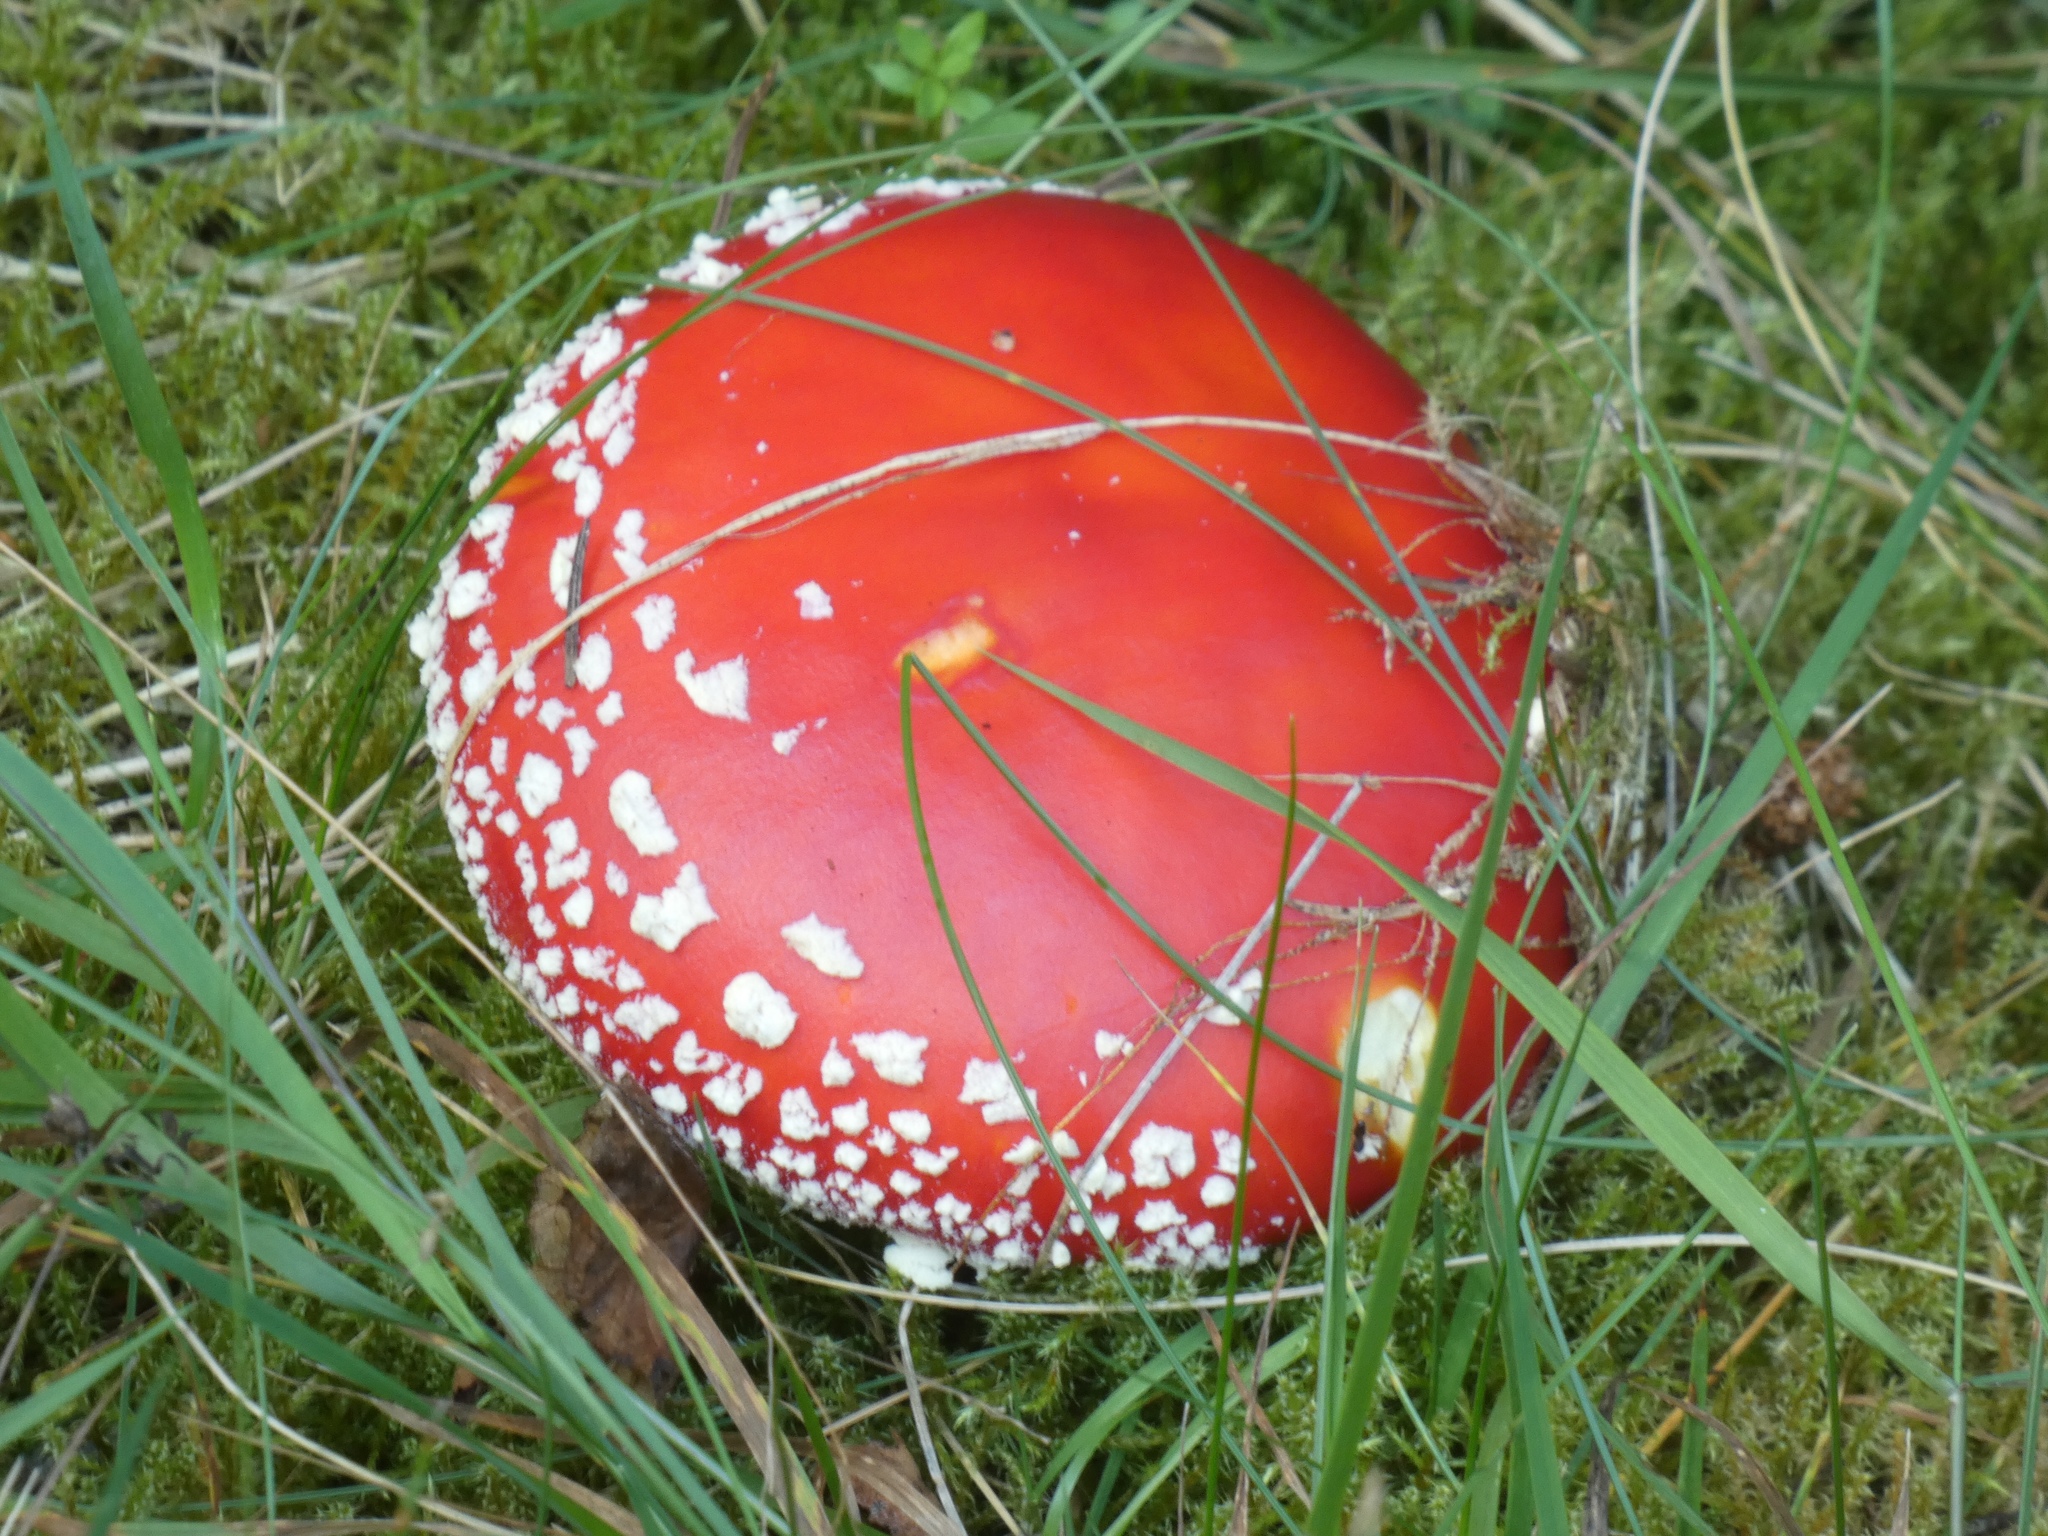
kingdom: Fungi
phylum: Basidiomycota
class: Agaricomycetes
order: Agaricales
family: Amanitaceae
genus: Amanita
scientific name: Amanita muscaria
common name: Fly agaric
